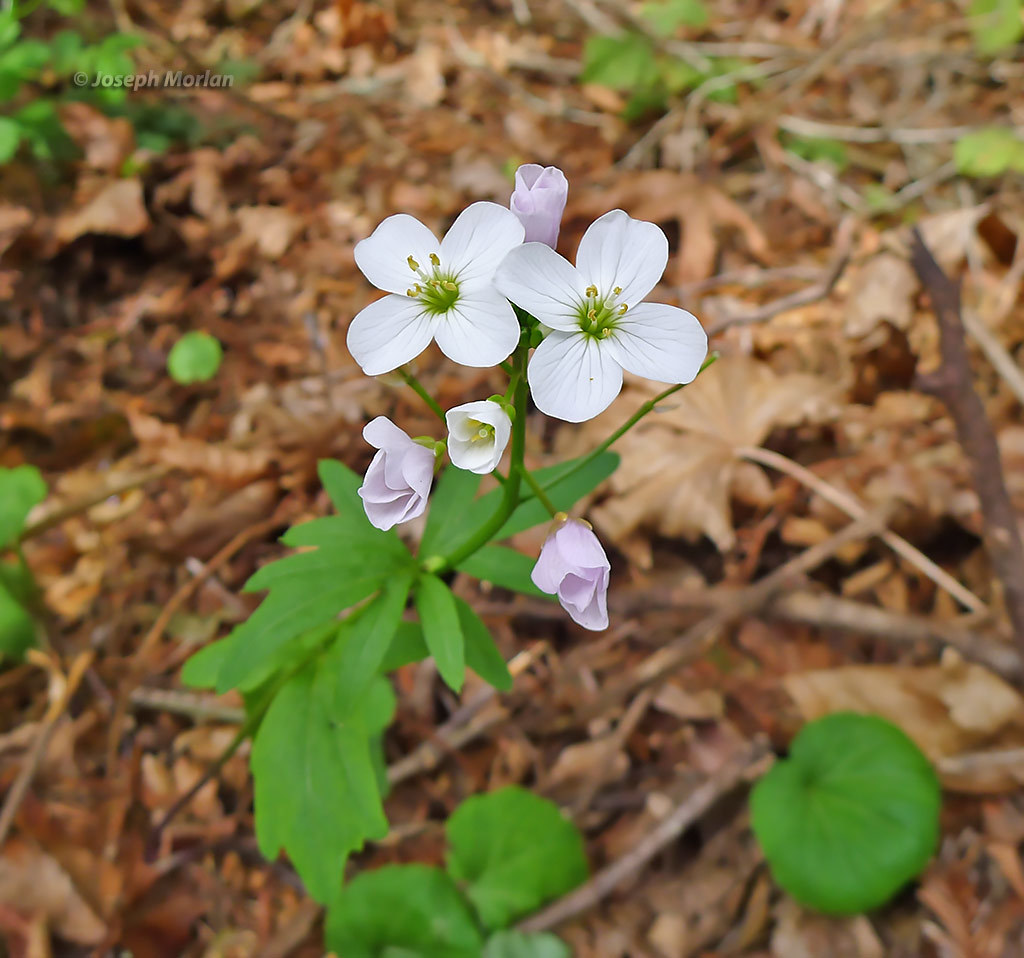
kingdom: Plantae
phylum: Tracheophyta
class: Magnoliopsida
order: Brassicales
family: Brassicaceae
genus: Cardamine
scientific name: Cardamine californica
